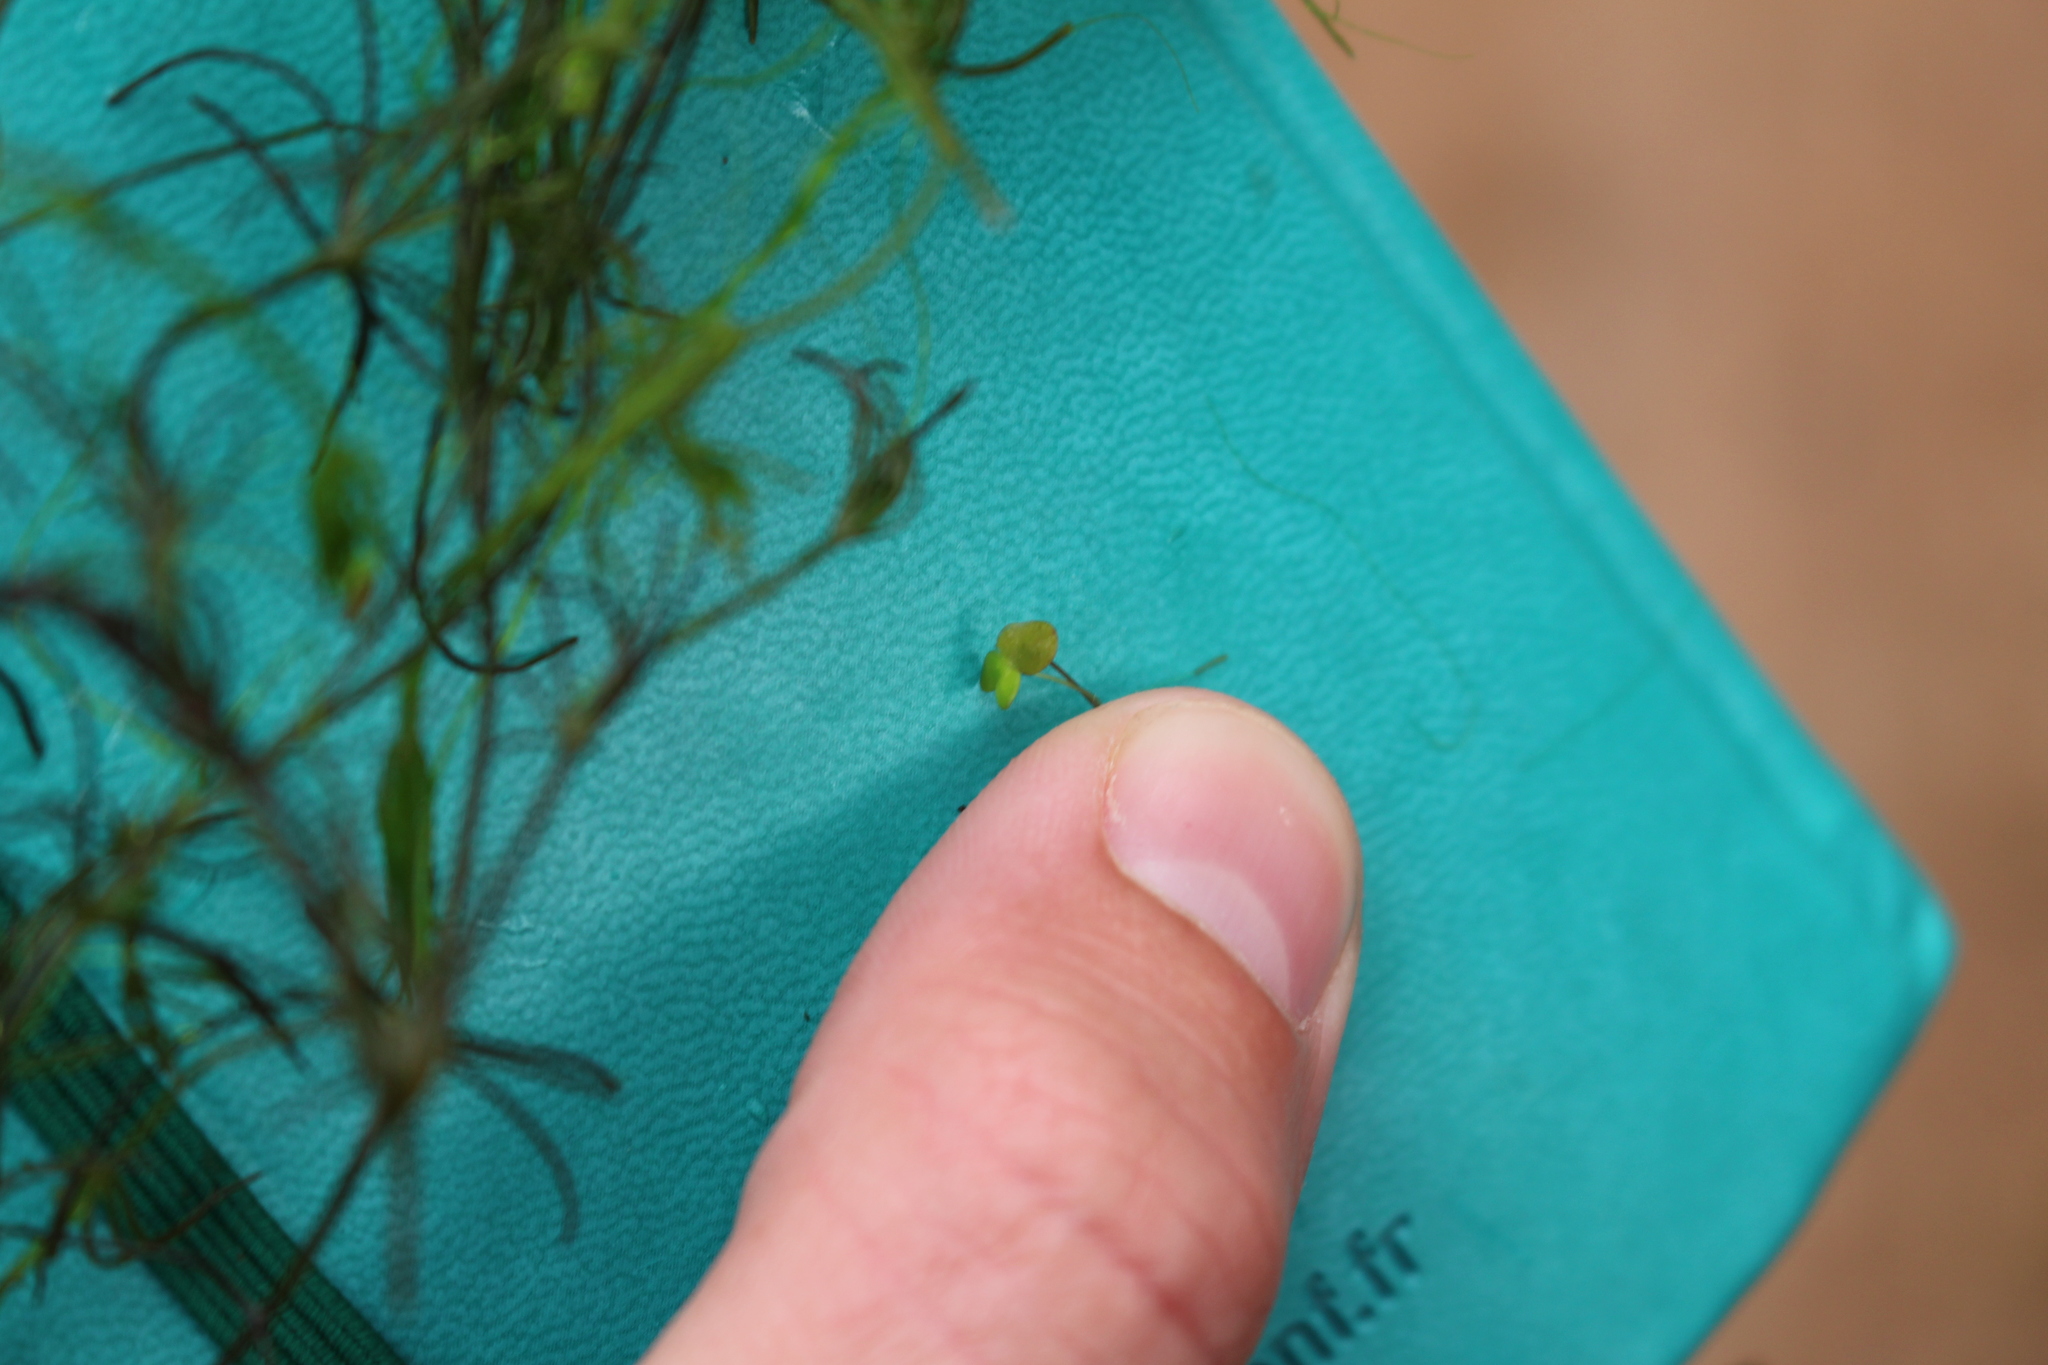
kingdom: Plantae
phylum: Tracheophyta
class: Liliopsida
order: Alismatales
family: Araceae
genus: Lemna
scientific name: Lemna minuta
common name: Least duckweed
